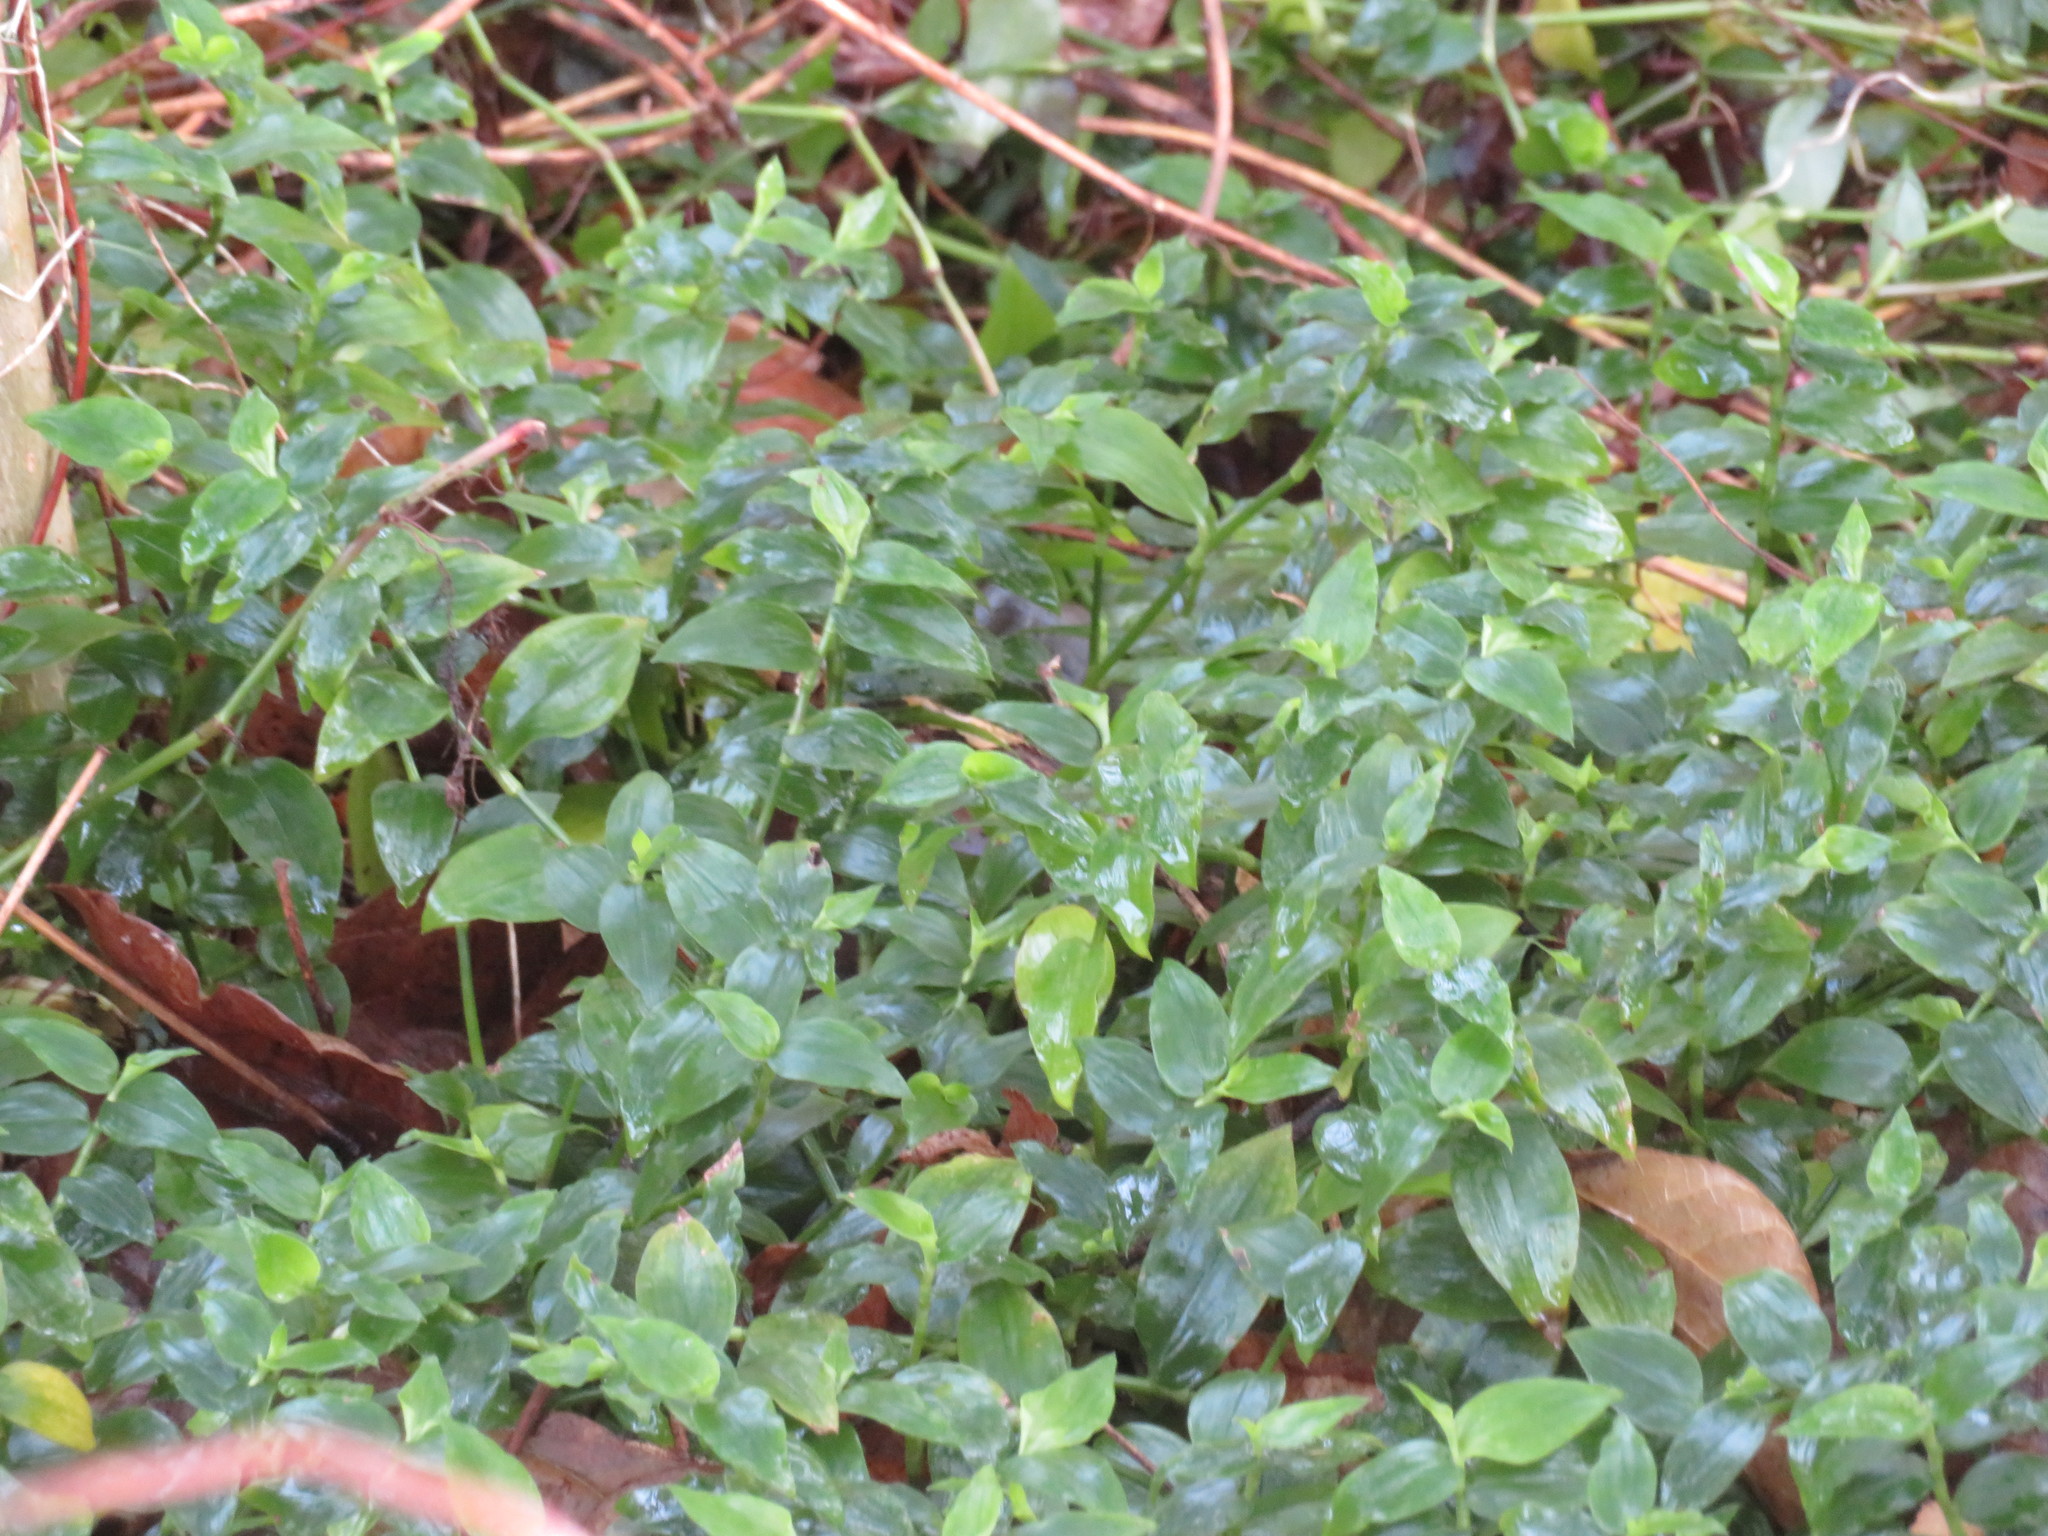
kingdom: Plantae
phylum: Tracheophyta
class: Liliopsida
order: Commelinales
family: Commelinaceae
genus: Tradescantia
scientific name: Tradescantia fluminensis
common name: Wandering-jew
